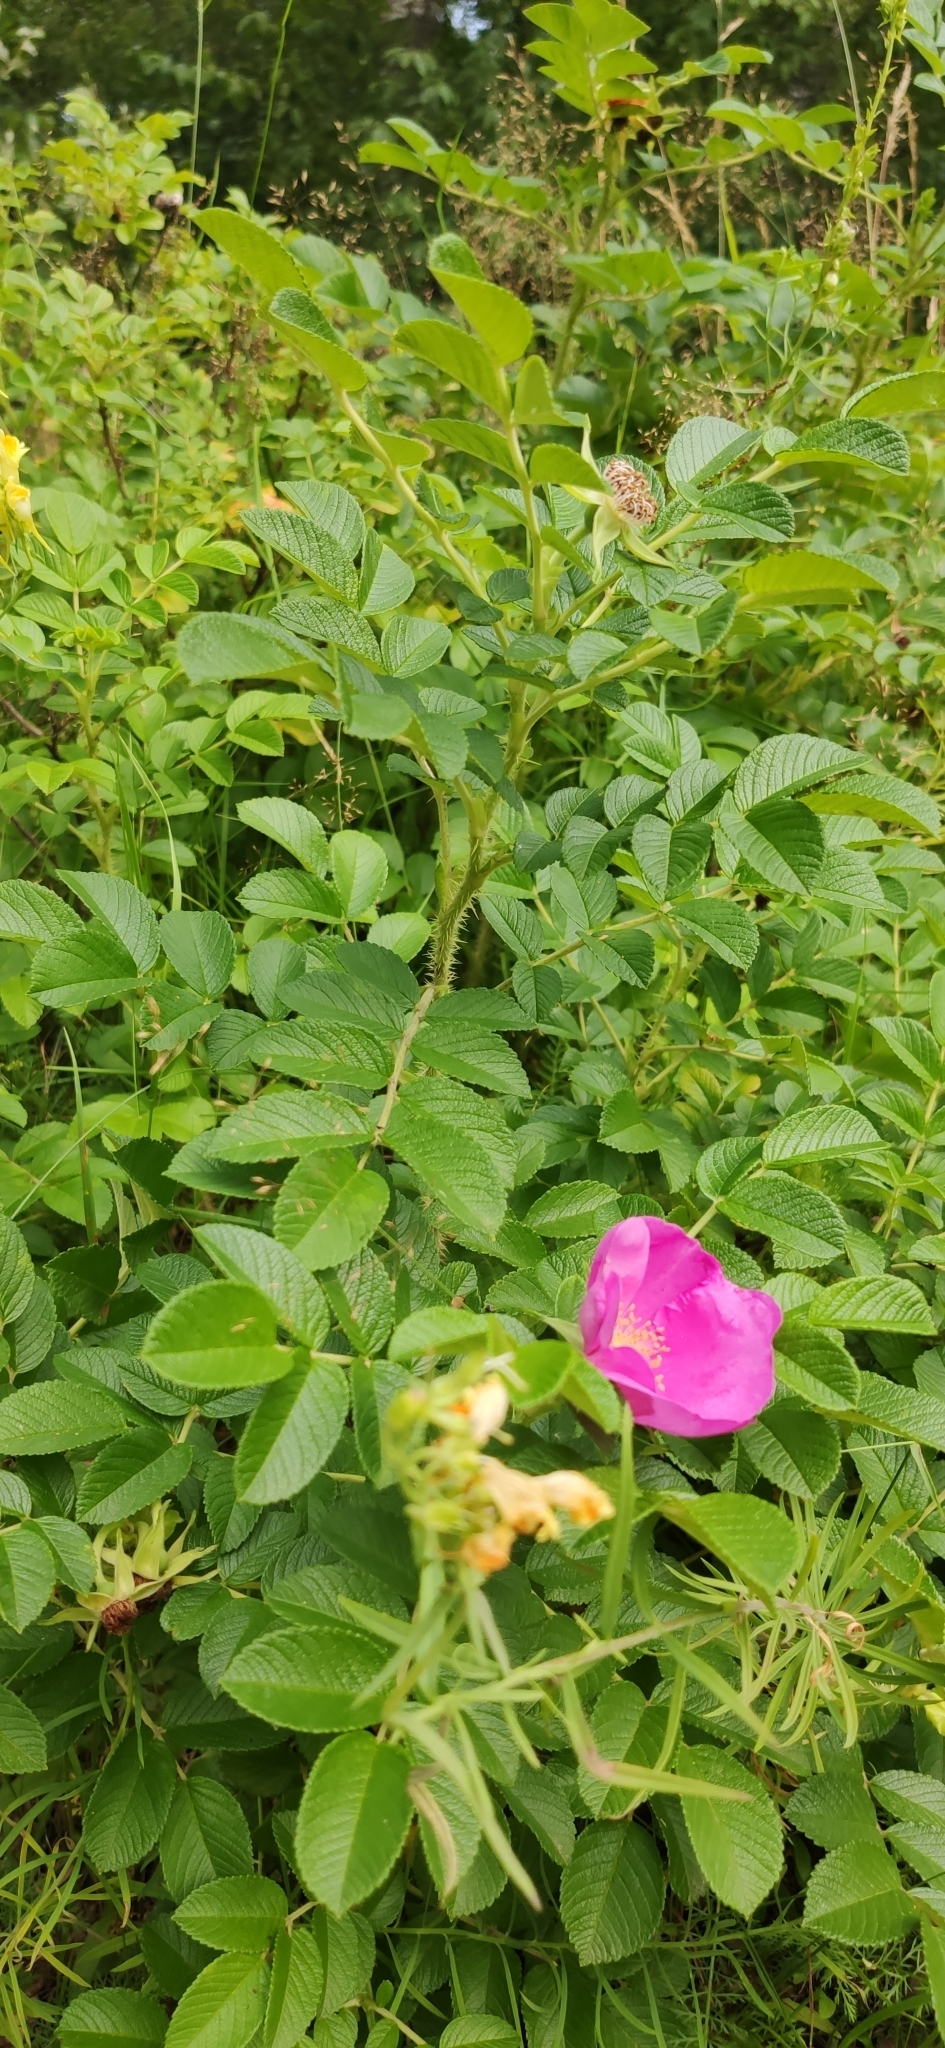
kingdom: Plantae
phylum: Tracheophyta
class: Magnoliopsida
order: Rosales
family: Rosaceae
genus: Rosa
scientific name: Rosa rugosa
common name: Japanese rose
